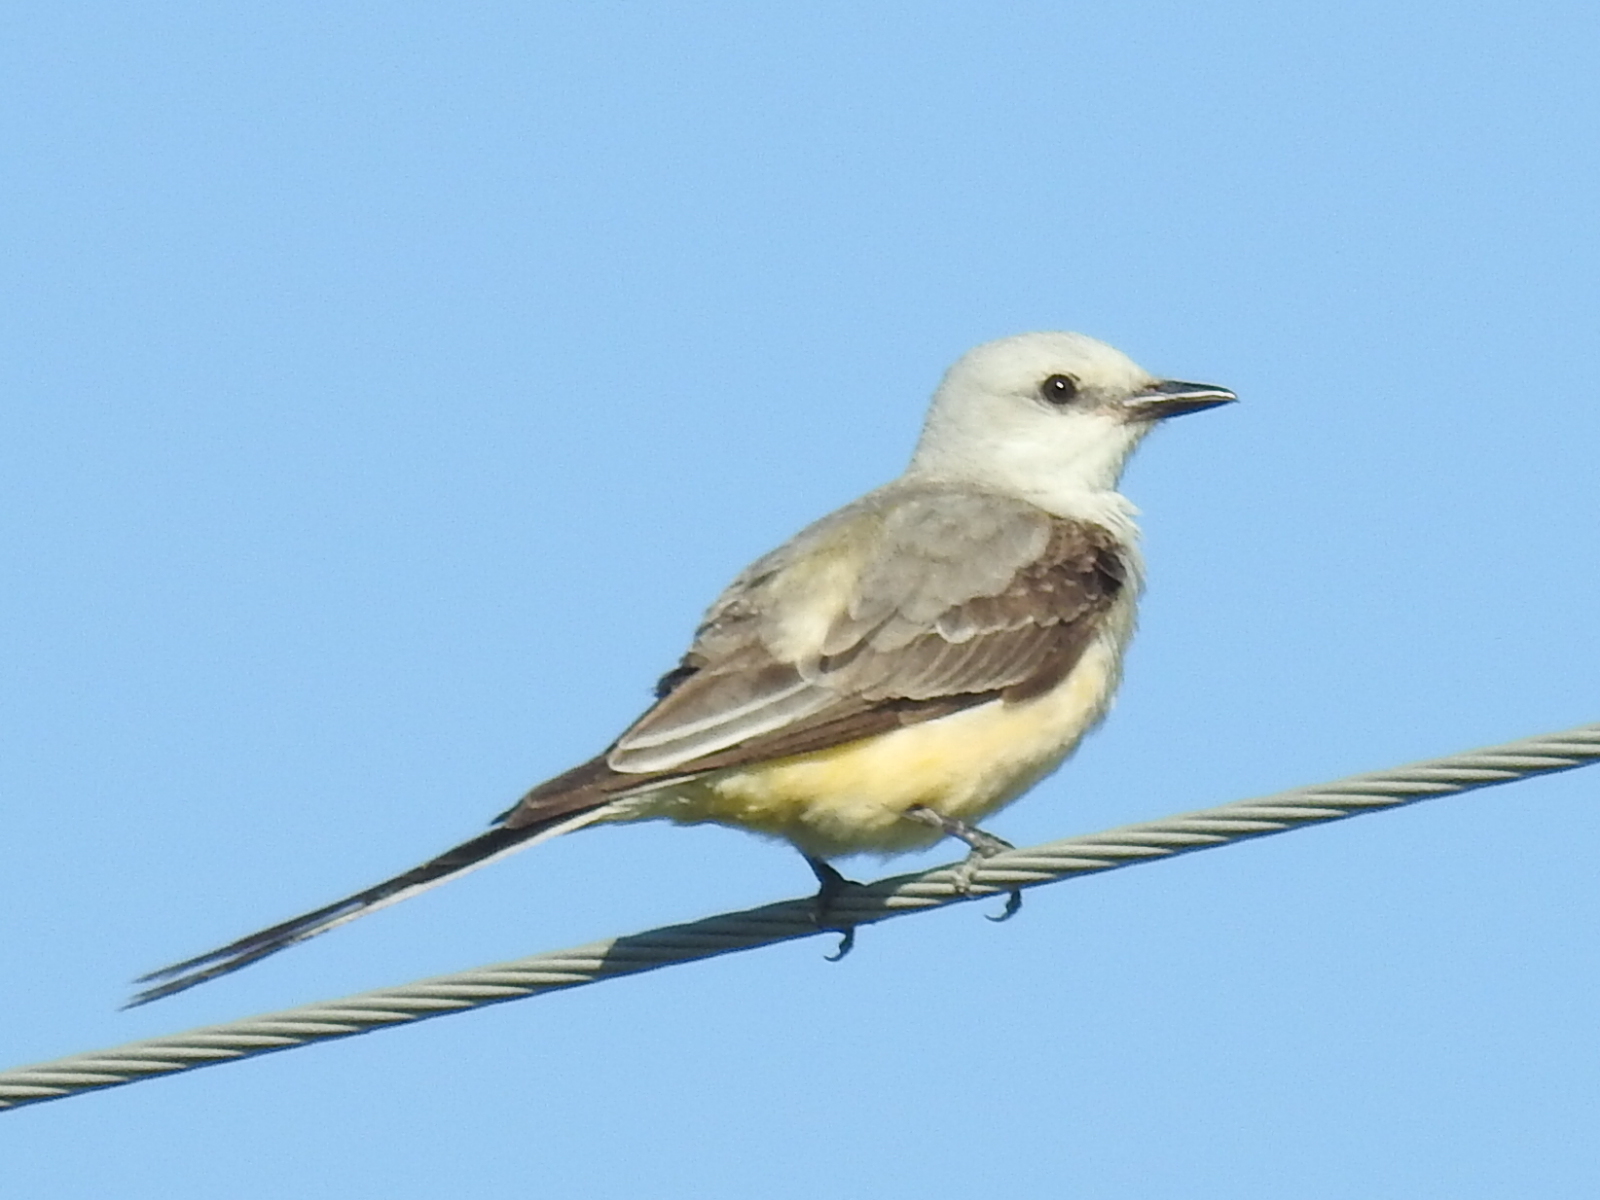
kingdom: Animalia
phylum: Chordata
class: Aves
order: Passeriformes
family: Tyrannidae
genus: Tyrannus
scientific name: Tyrannus forficatus
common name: Scissor-tailed flycatcher
